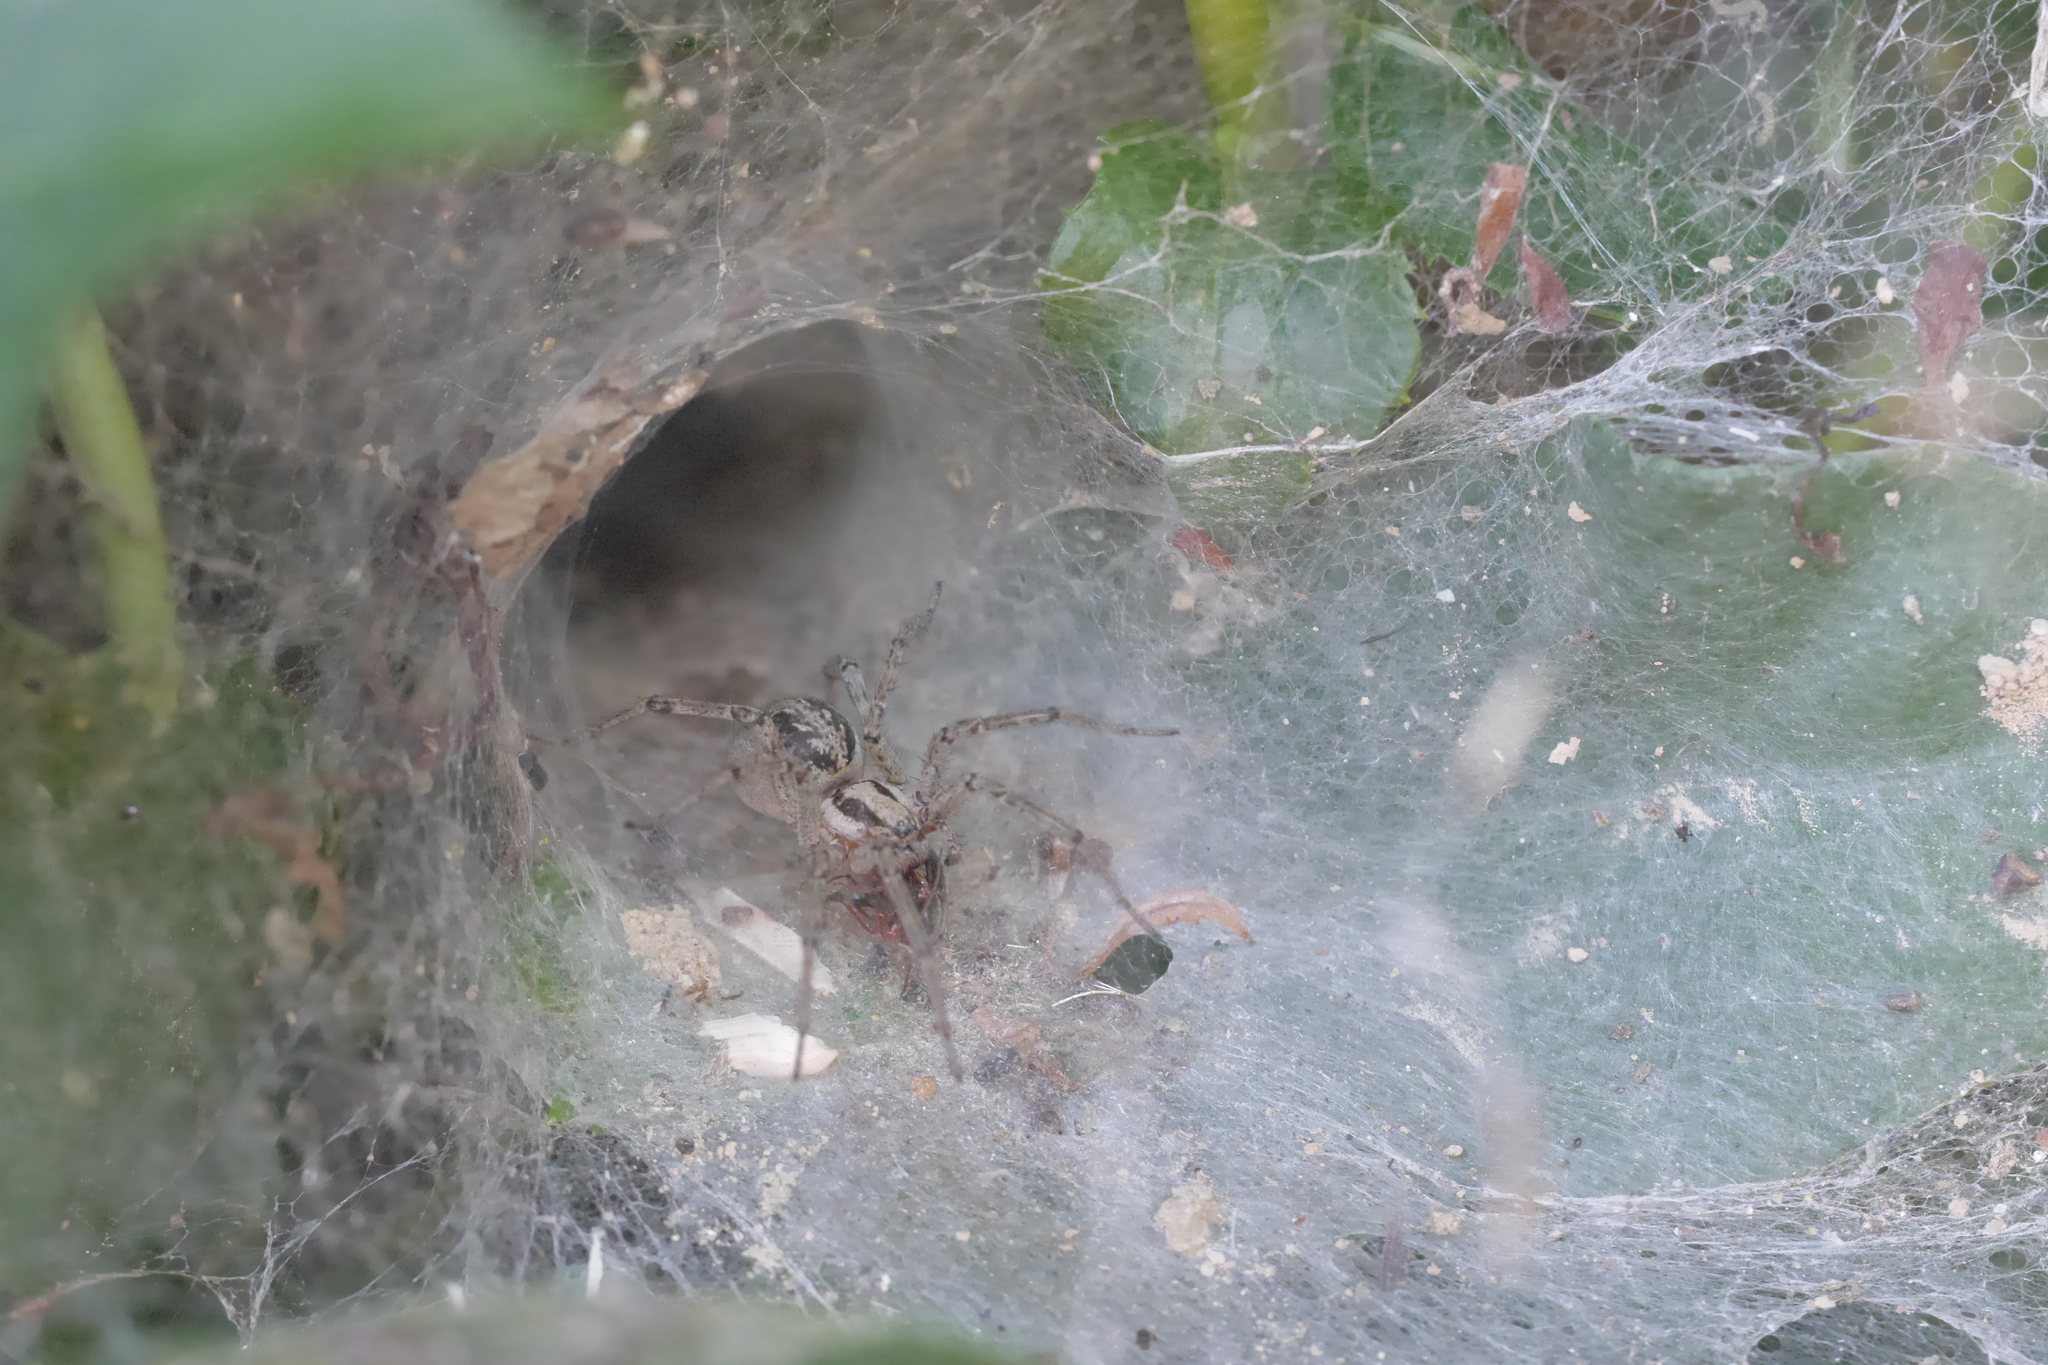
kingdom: Animalia
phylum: Arthropoda
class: Arachnida
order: Araneae
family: Agelenidae
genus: Agelena
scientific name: Agelena labyrinthica
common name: Labyrinth spider
